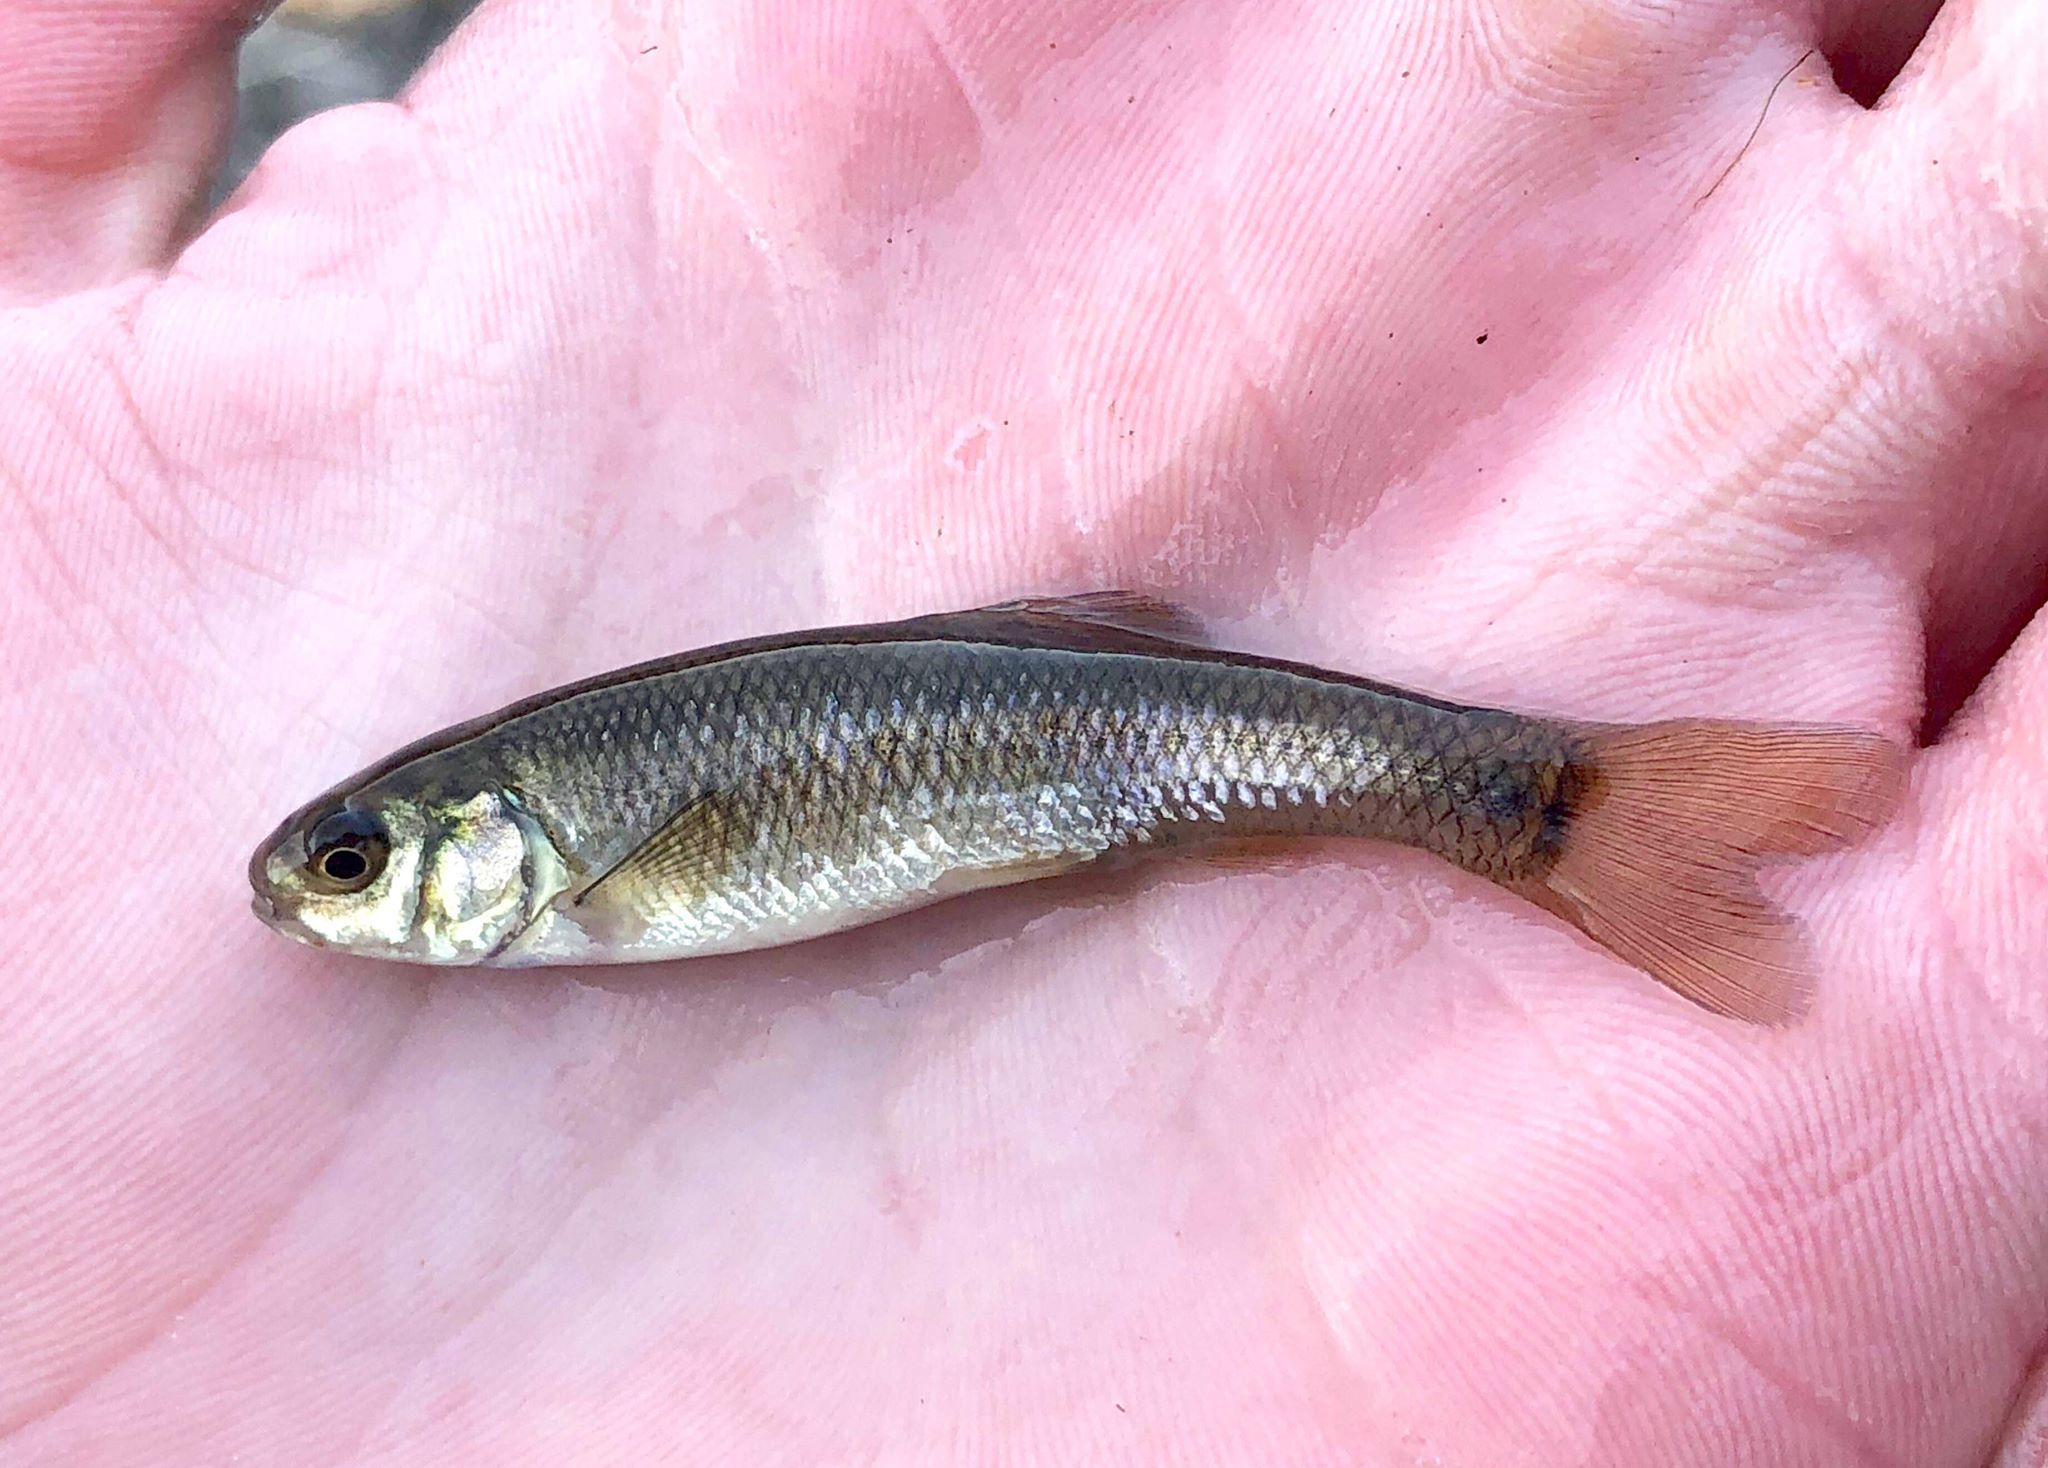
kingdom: Animalia
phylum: Chordata
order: Cypriniformes
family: Cyprinidae
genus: Pimephales
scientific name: Pimephales promelas
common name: Fathead minnow
